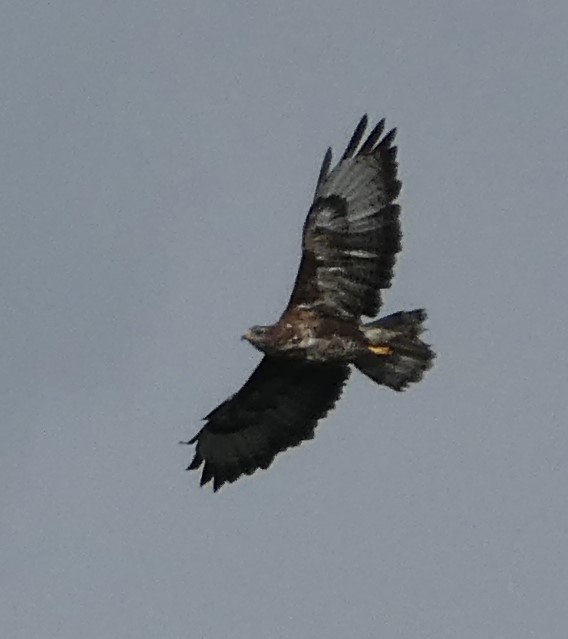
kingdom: Animalia
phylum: Chordata
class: Aves
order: Accipitriformes
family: Accipitridae
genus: Buteo
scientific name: Buteo buteo
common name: Common buzzard
